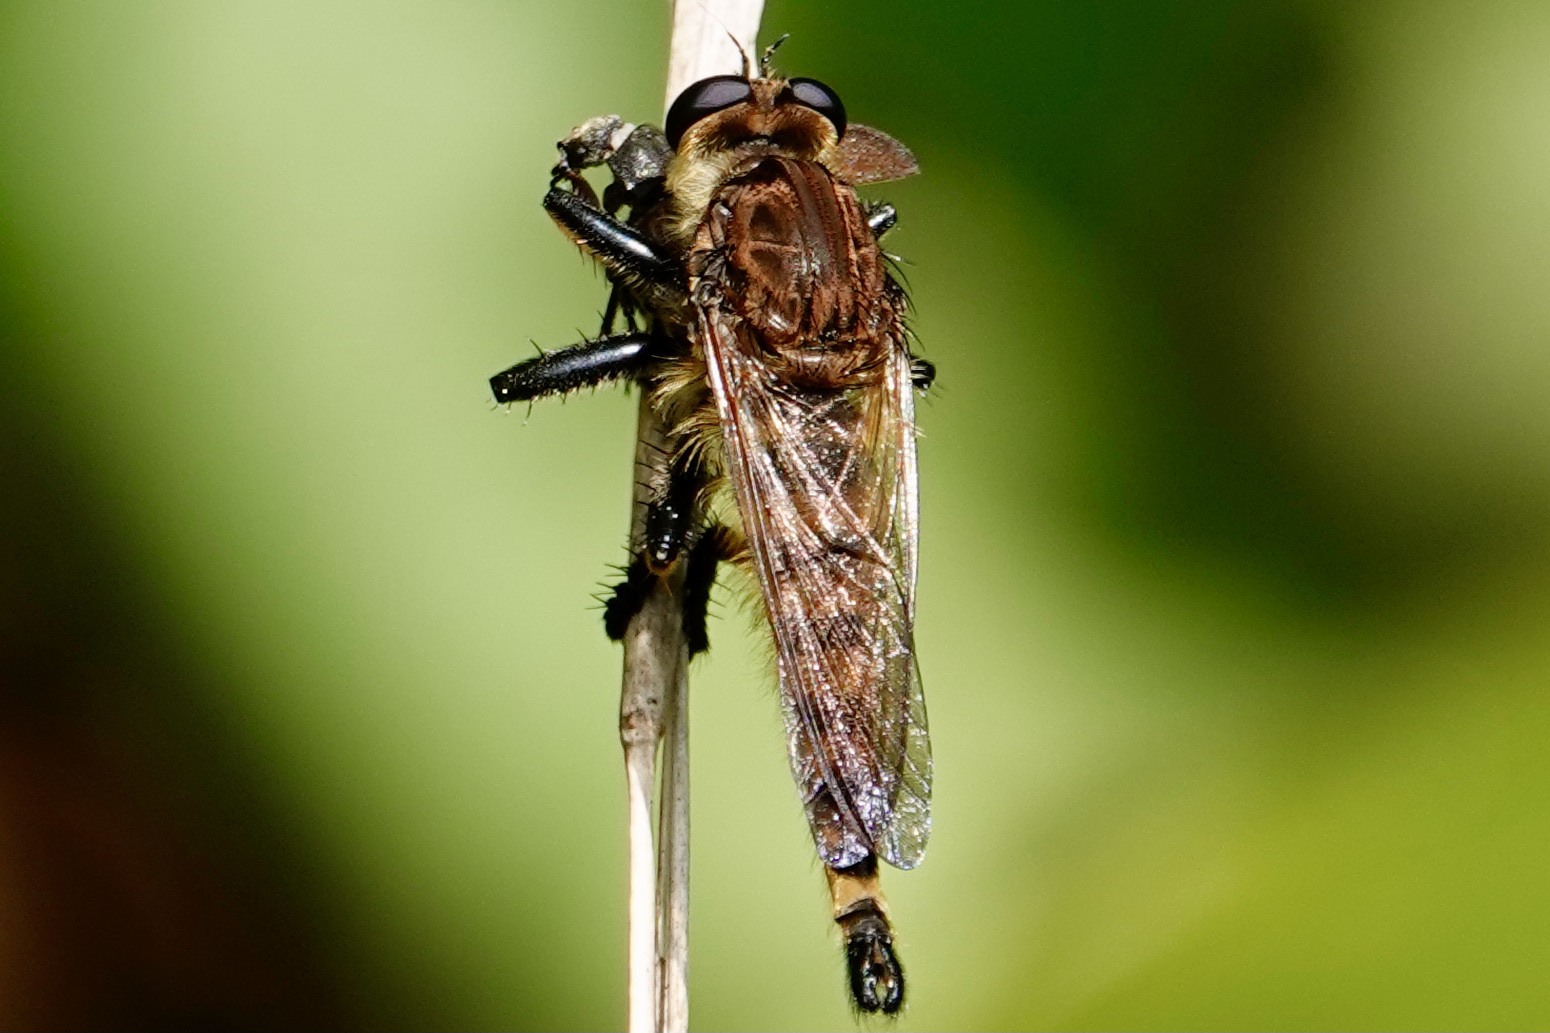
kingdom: Animalia
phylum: Arthropoda
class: Insecta
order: Diptera
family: Asilidae
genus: Promachus
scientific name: Promachus rufipes
